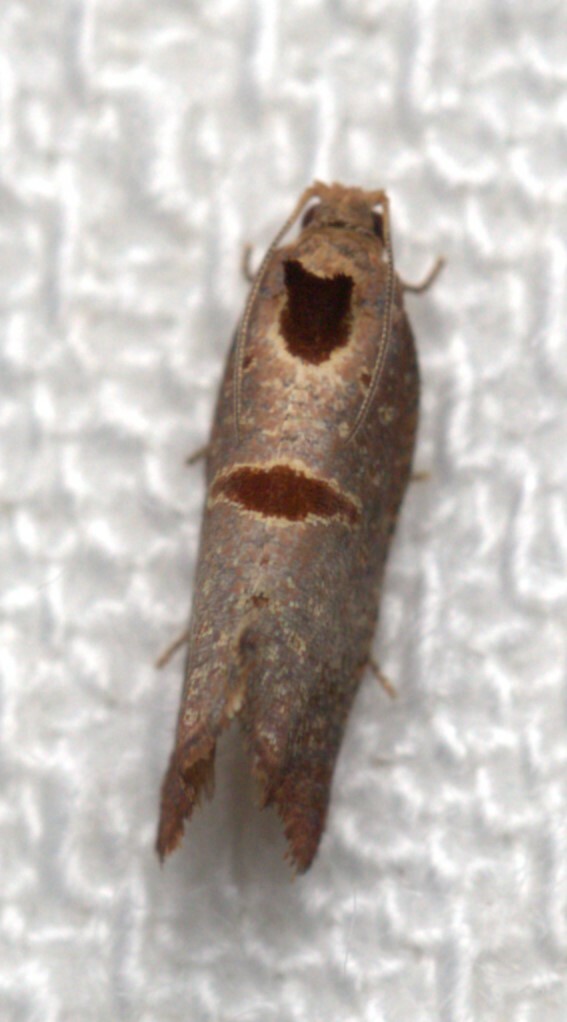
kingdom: Animalia
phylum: Arthropoda
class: Insecta
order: Lepidoptera
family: Tortricidae
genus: Glyphidoptera
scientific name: Glyphidoptera insignana
